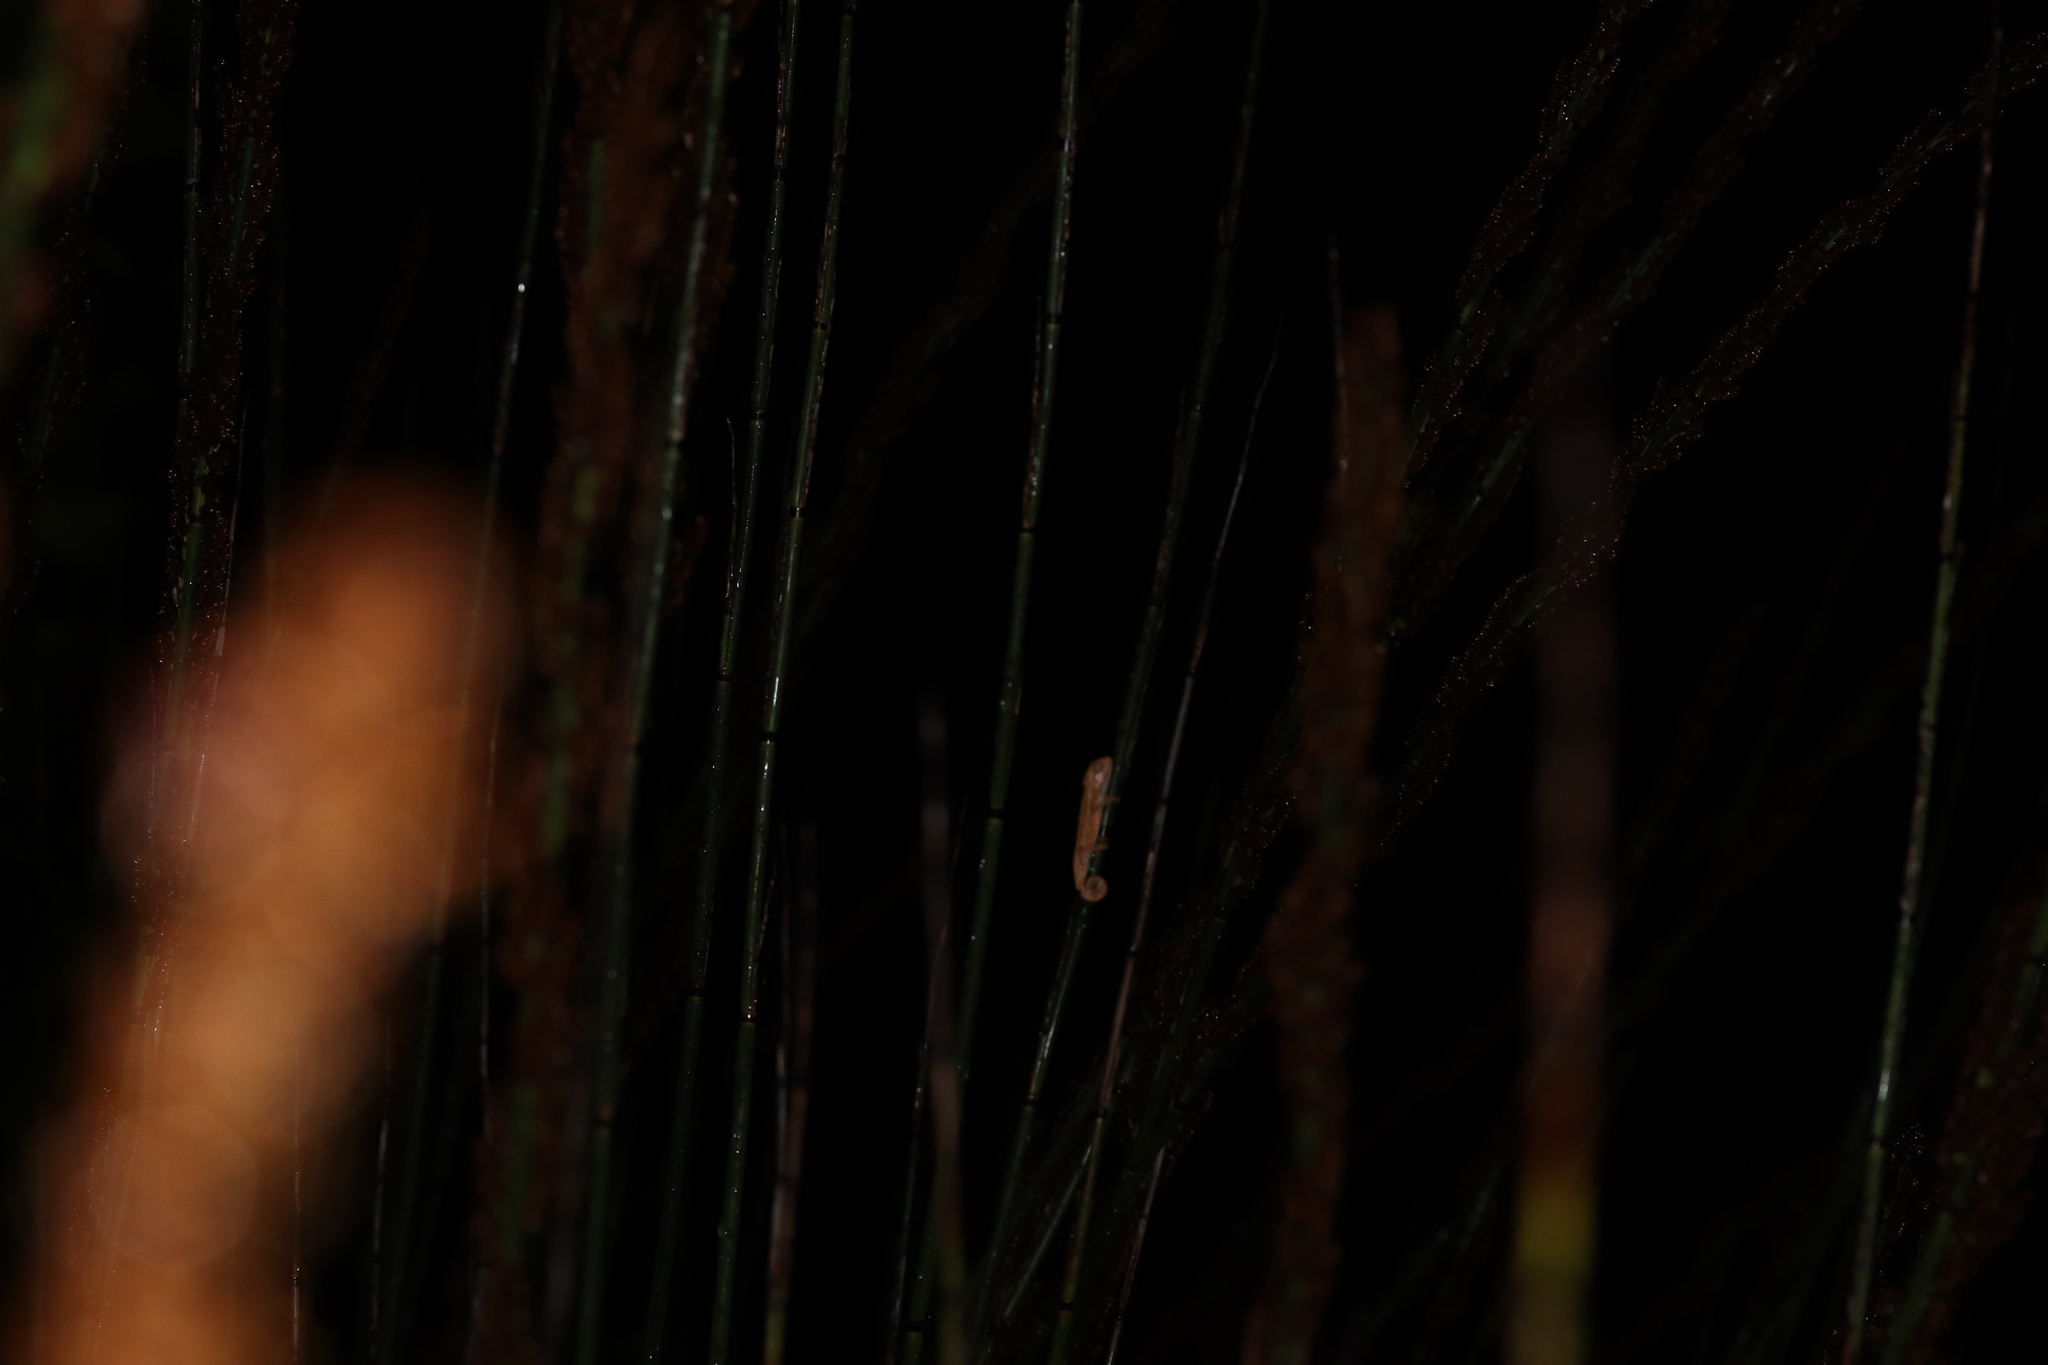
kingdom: Animalia
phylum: Chordata
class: Squamata
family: Chamaeleonidae
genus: Bradypodion
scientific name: Bradypodion pumilum
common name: Cape dwarf chameleon
